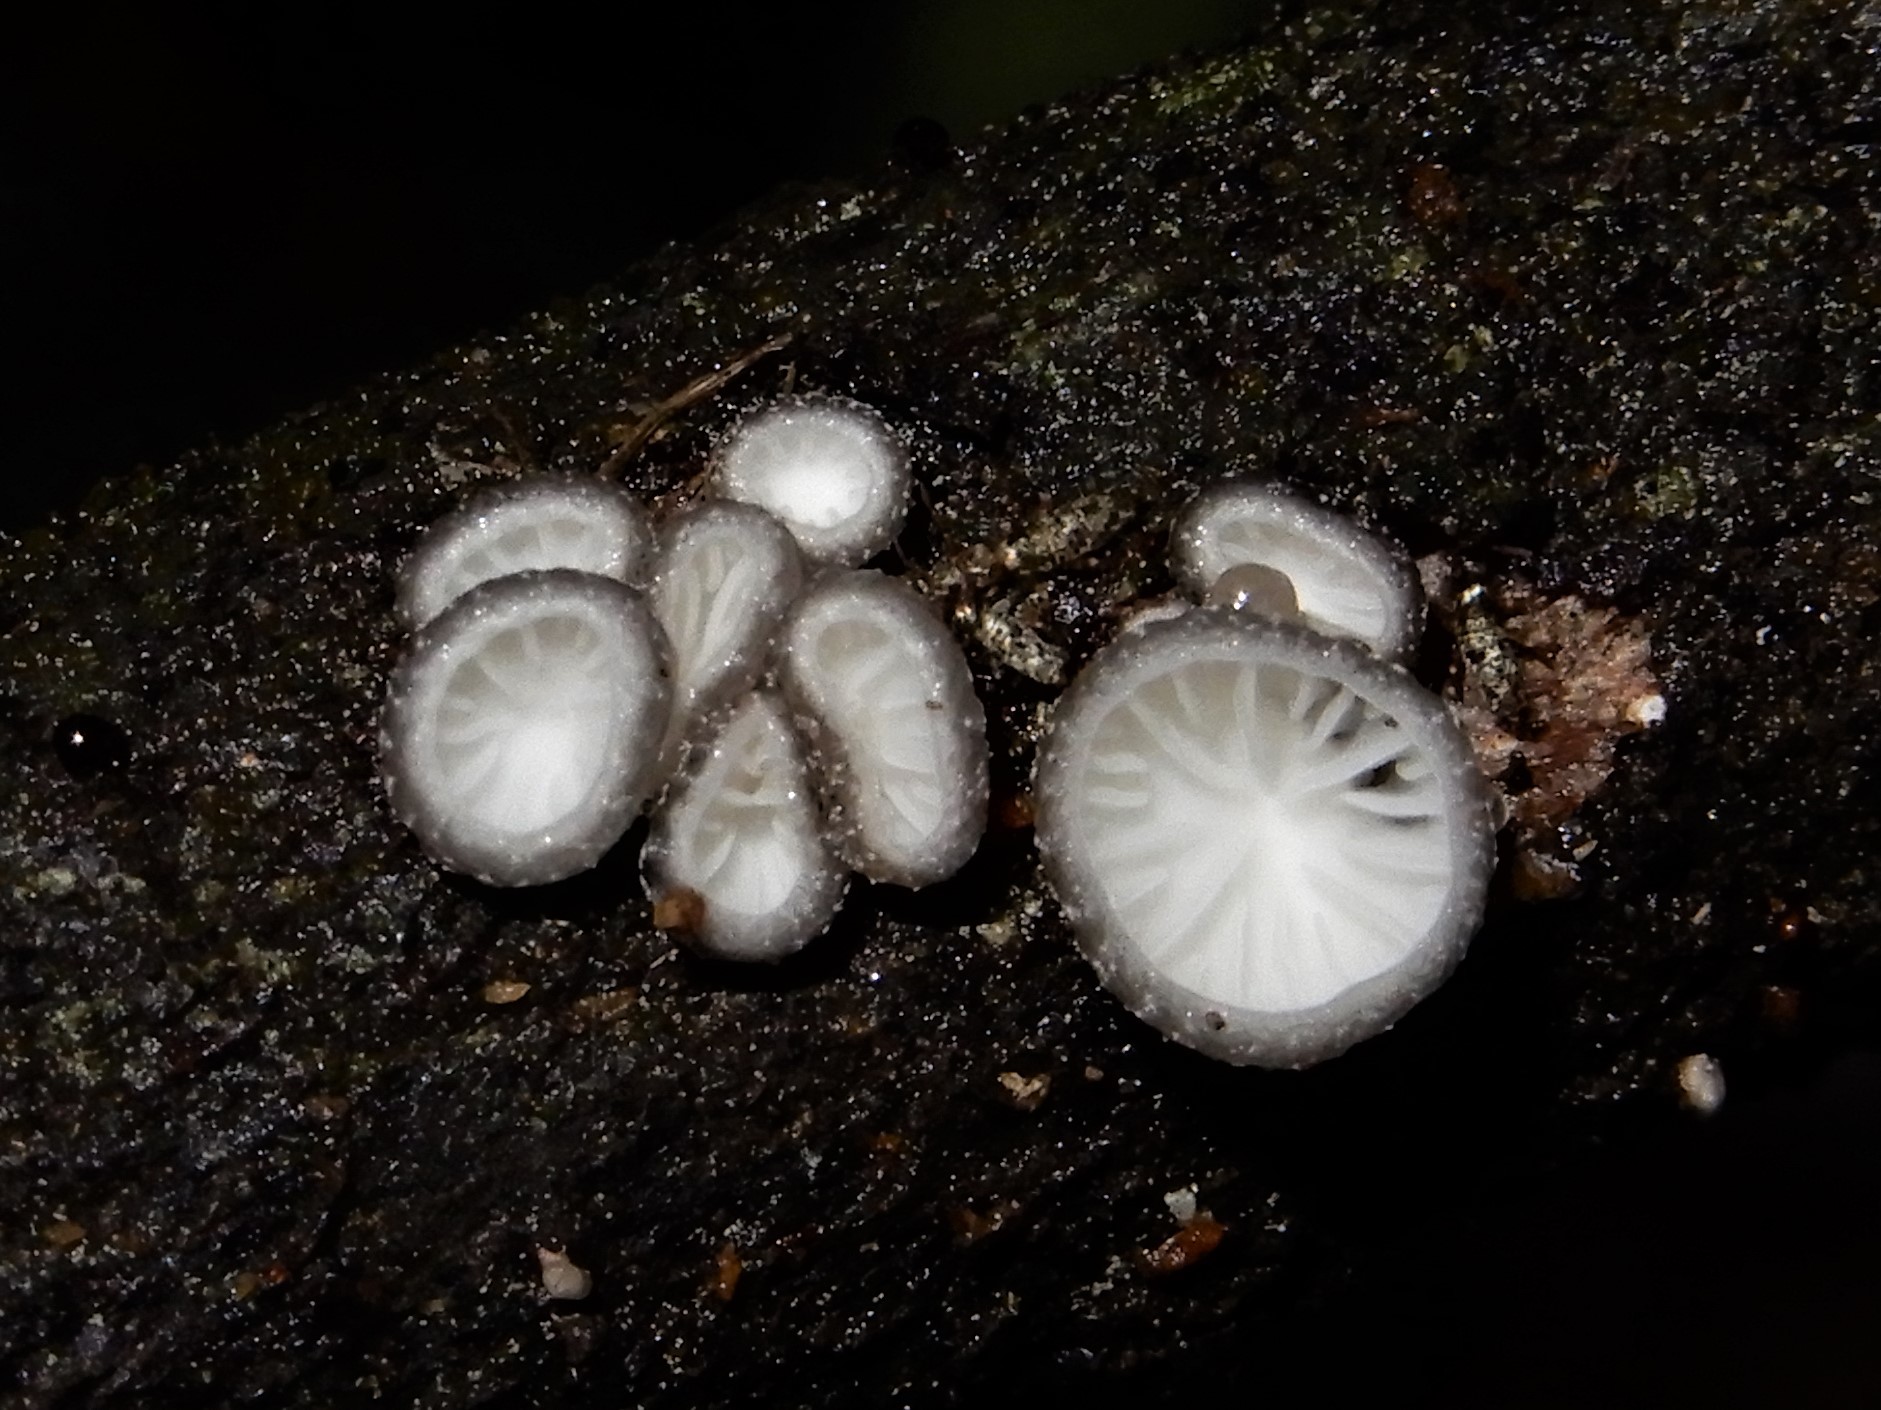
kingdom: Fungi
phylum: Basidiomycota
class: Agaricomycetes
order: Agaricales
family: Pleurotaceae
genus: Hohenbuehelia
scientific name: Hohenbuehelia
